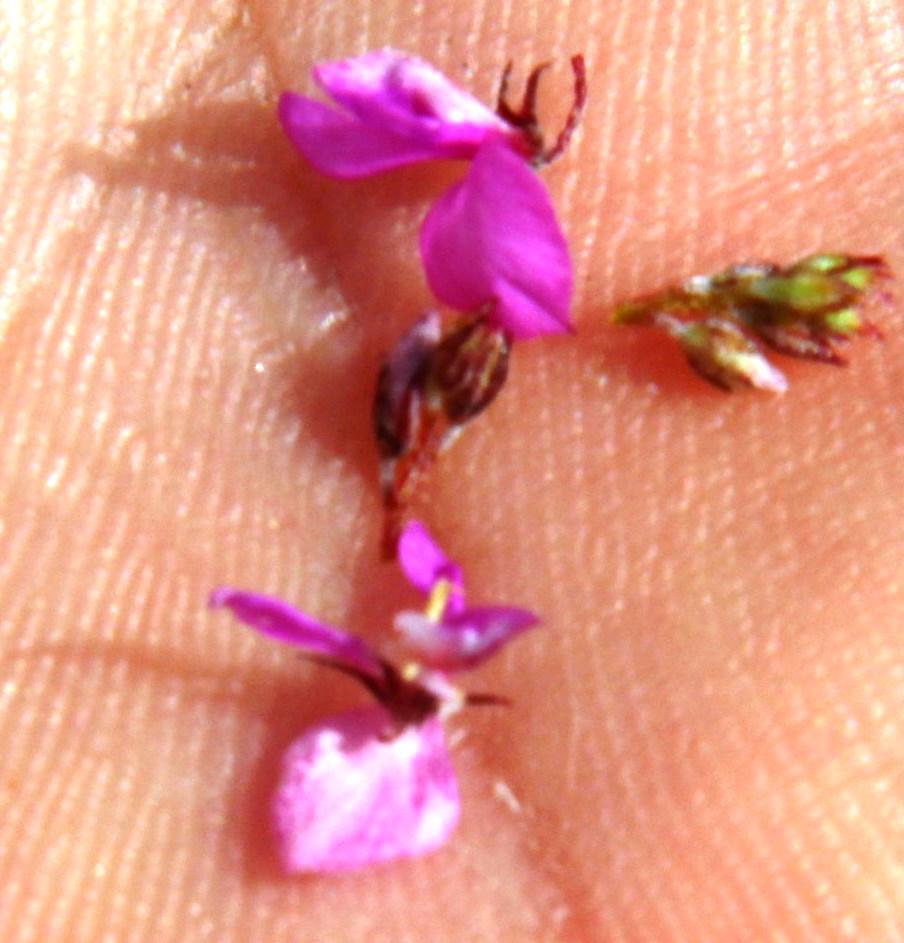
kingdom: Plantae
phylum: Tracheophyta
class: Magnoliopsida
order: Fabales
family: Fabaceae
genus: Indigofera
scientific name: Indigofera angustifolia
